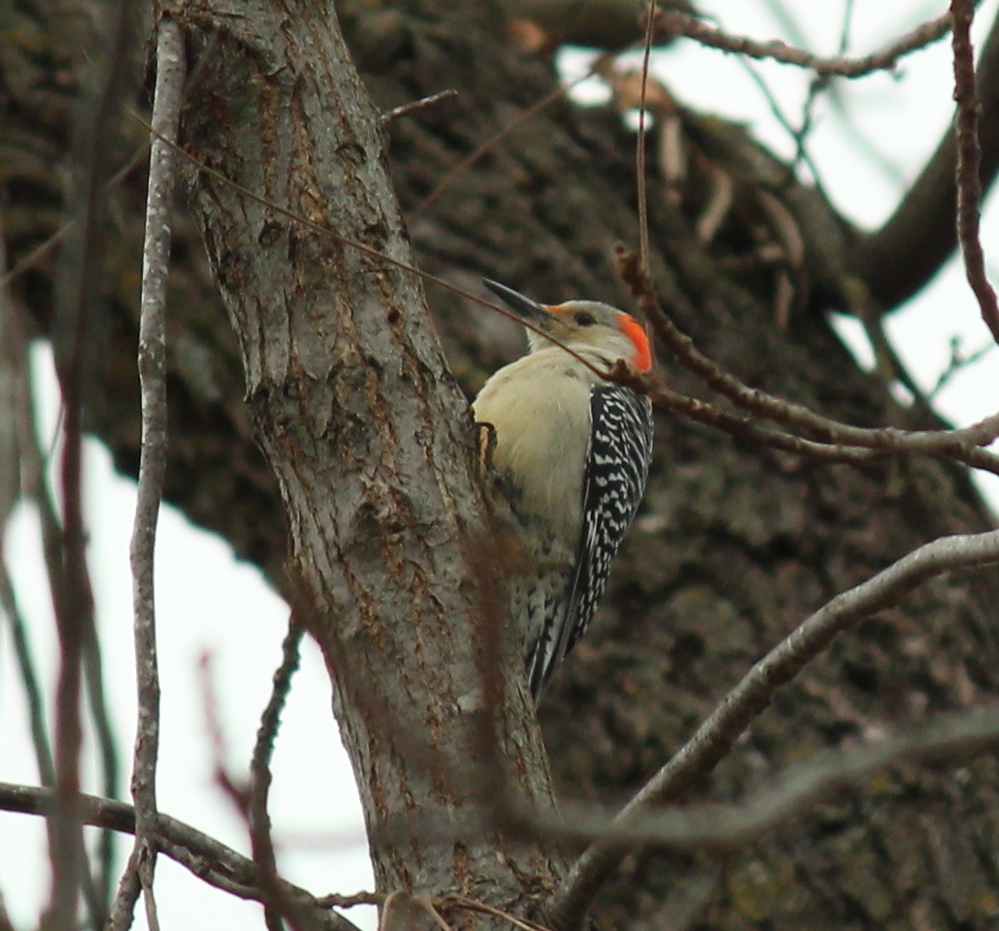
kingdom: Animalia
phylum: Chordata
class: Aves
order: Piciformes
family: Picidae
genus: Melanerpes
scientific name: Melanerpes carolinus
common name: Red-bellied woodpecker
